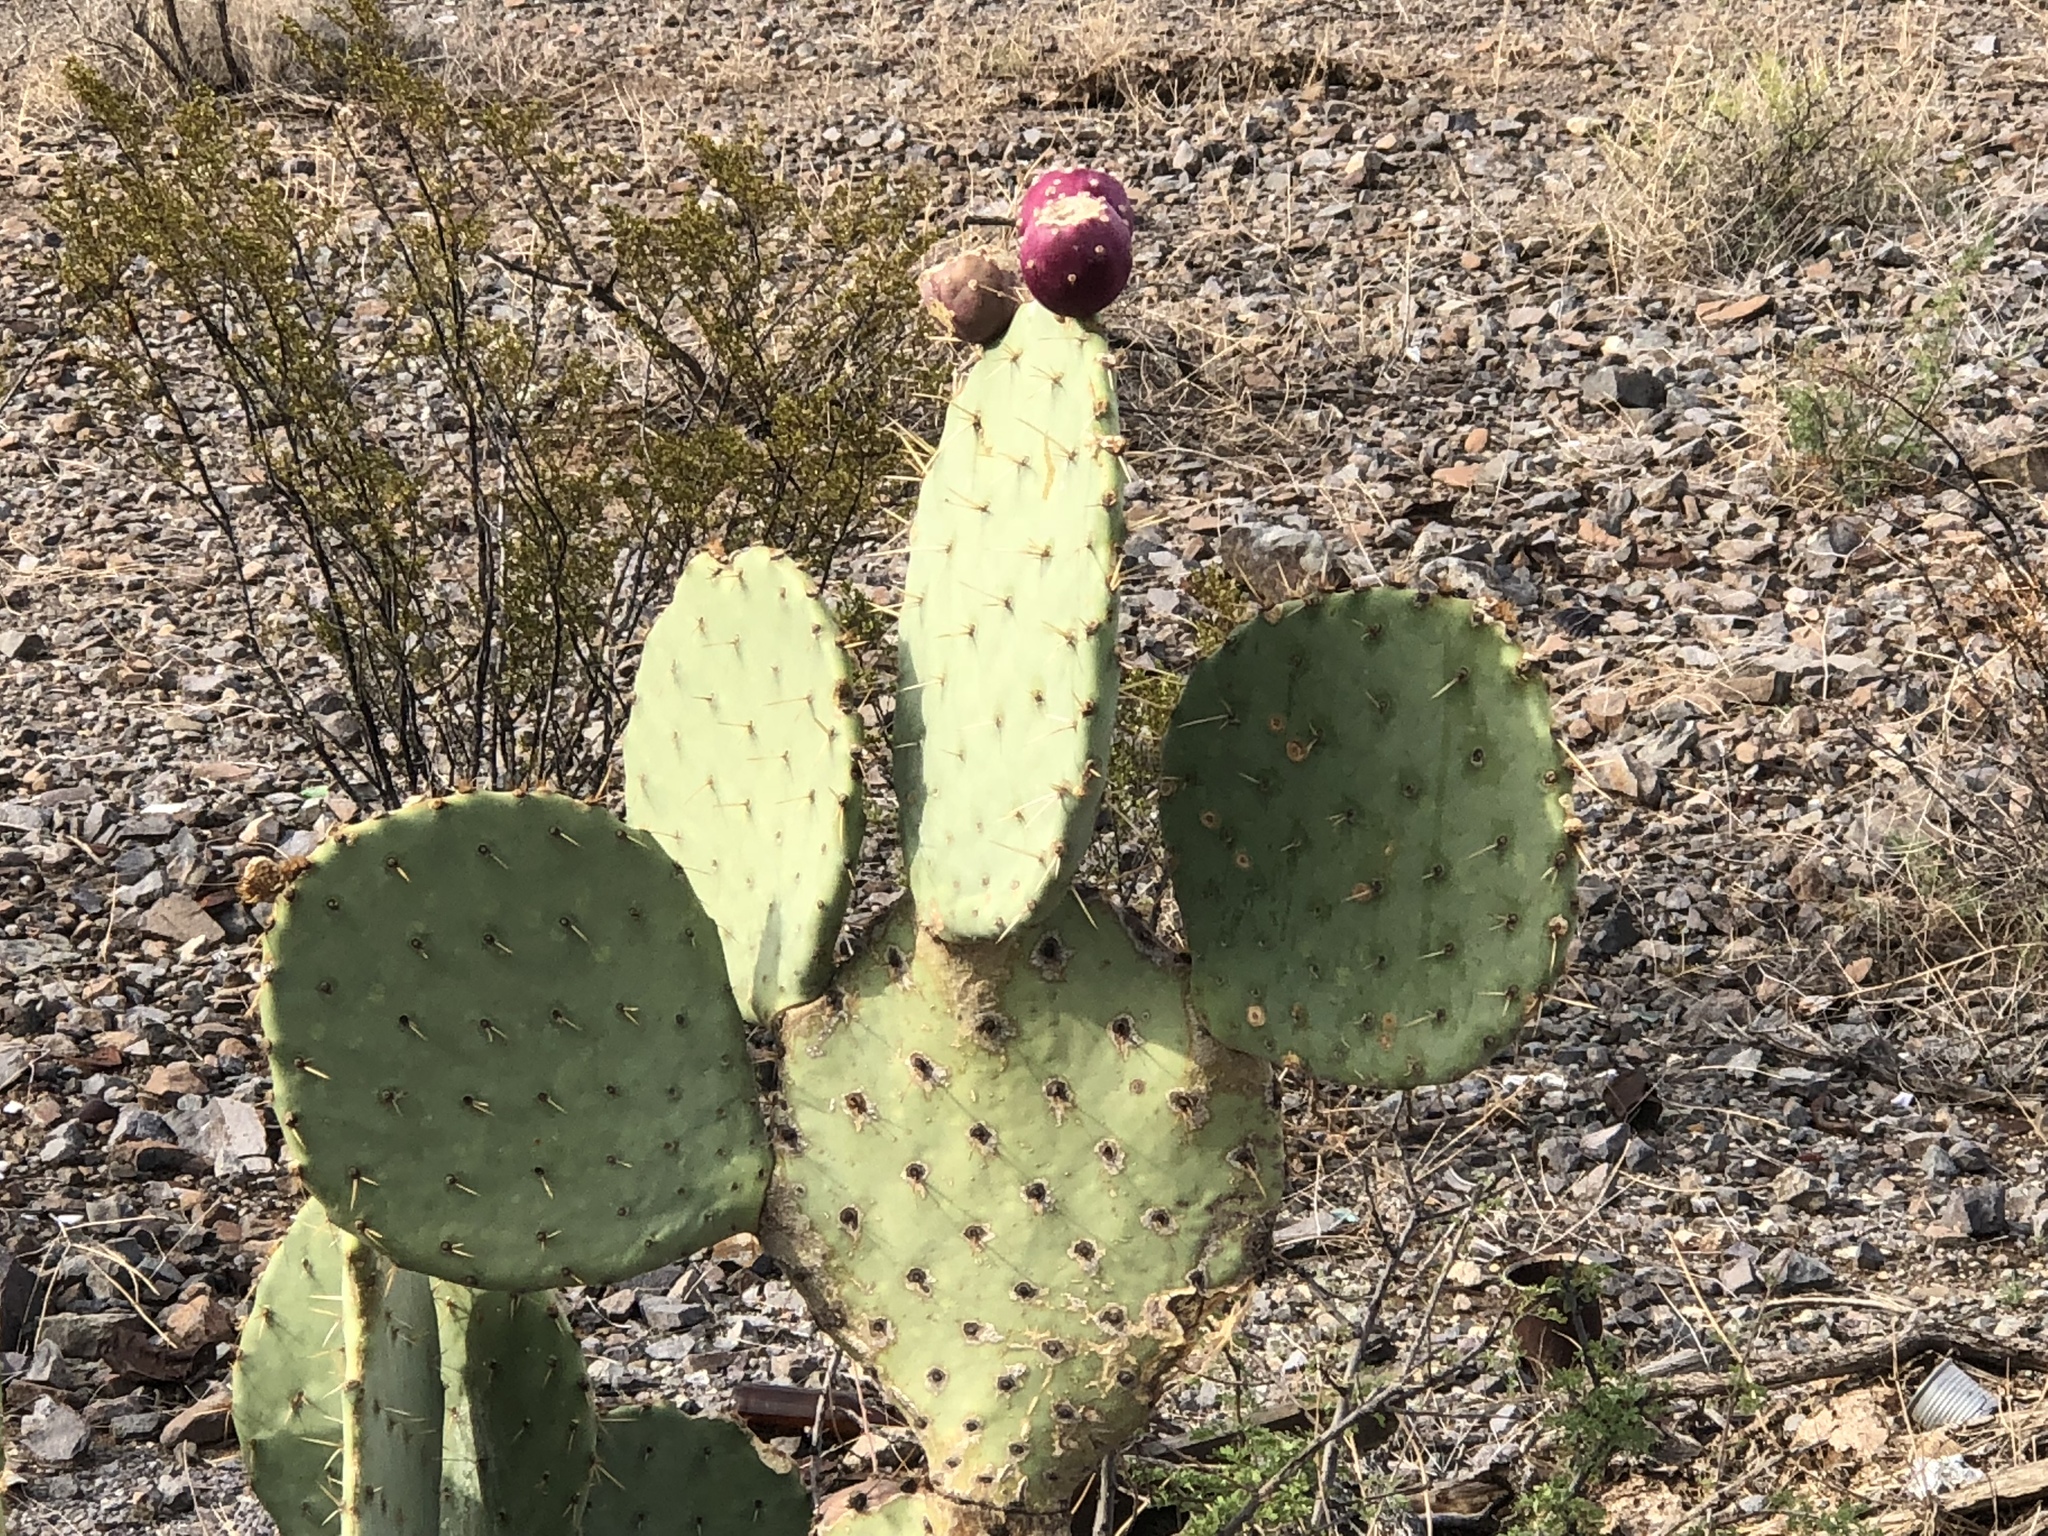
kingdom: Plantae
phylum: Tracheophyta
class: Magnoliopsida
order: Caryophyllales
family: Cactaceae
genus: Opuntia
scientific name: Opuntia engelmannii
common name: Cactus-apple
